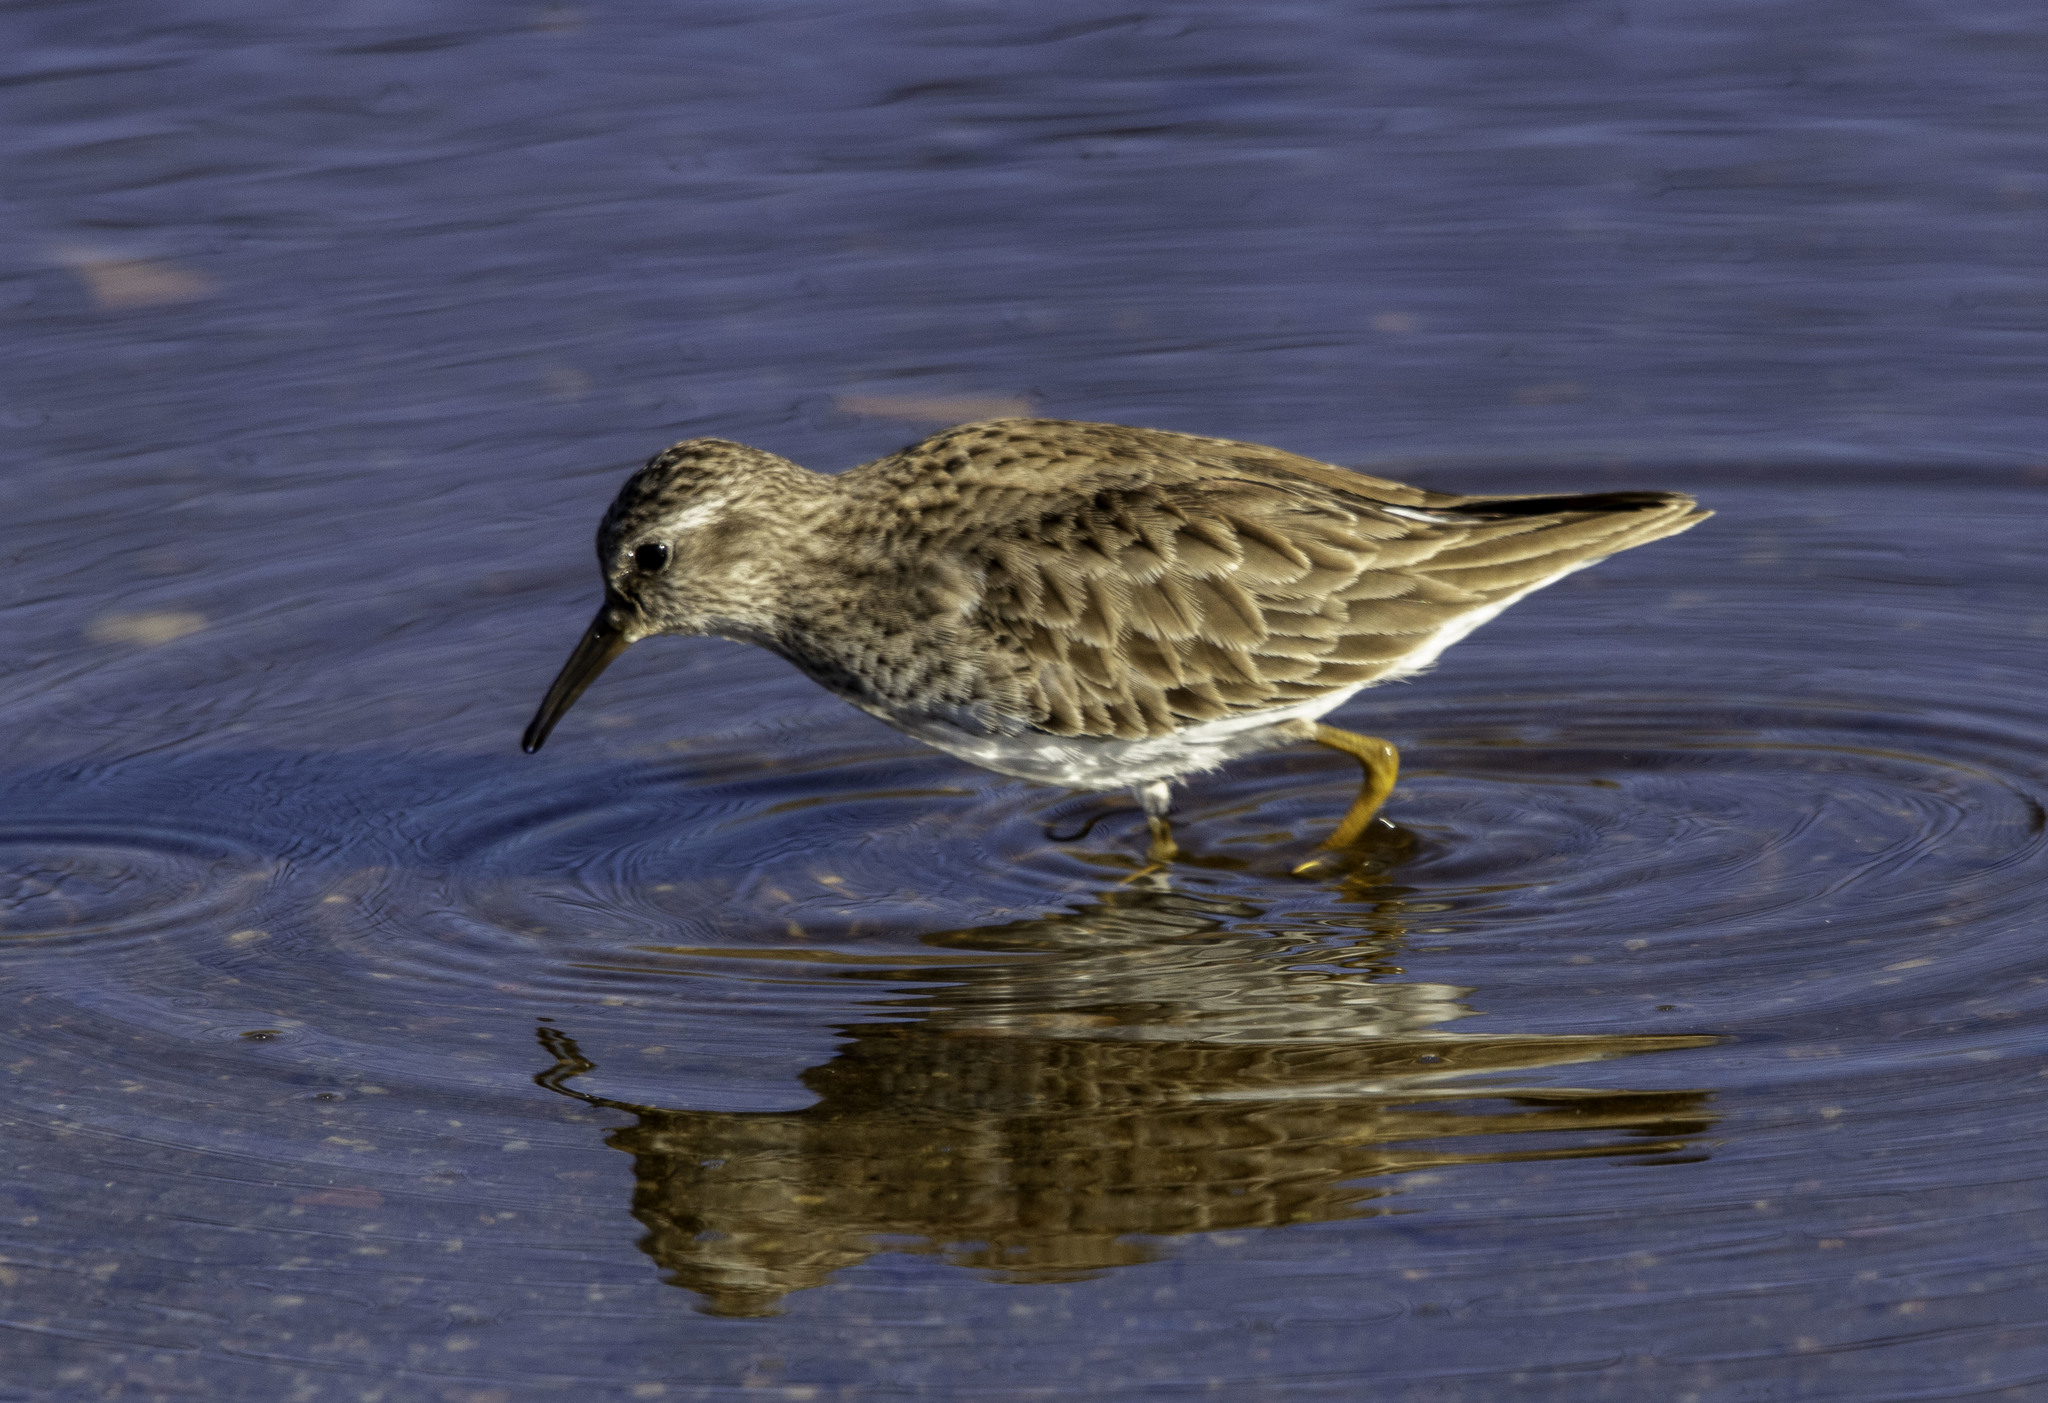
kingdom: Animalia
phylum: Chordata
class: Aves
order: Charadriiformes
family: Scolopacidae
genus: Calidris
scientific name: Calidris minutilla
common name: Least sandpiper
